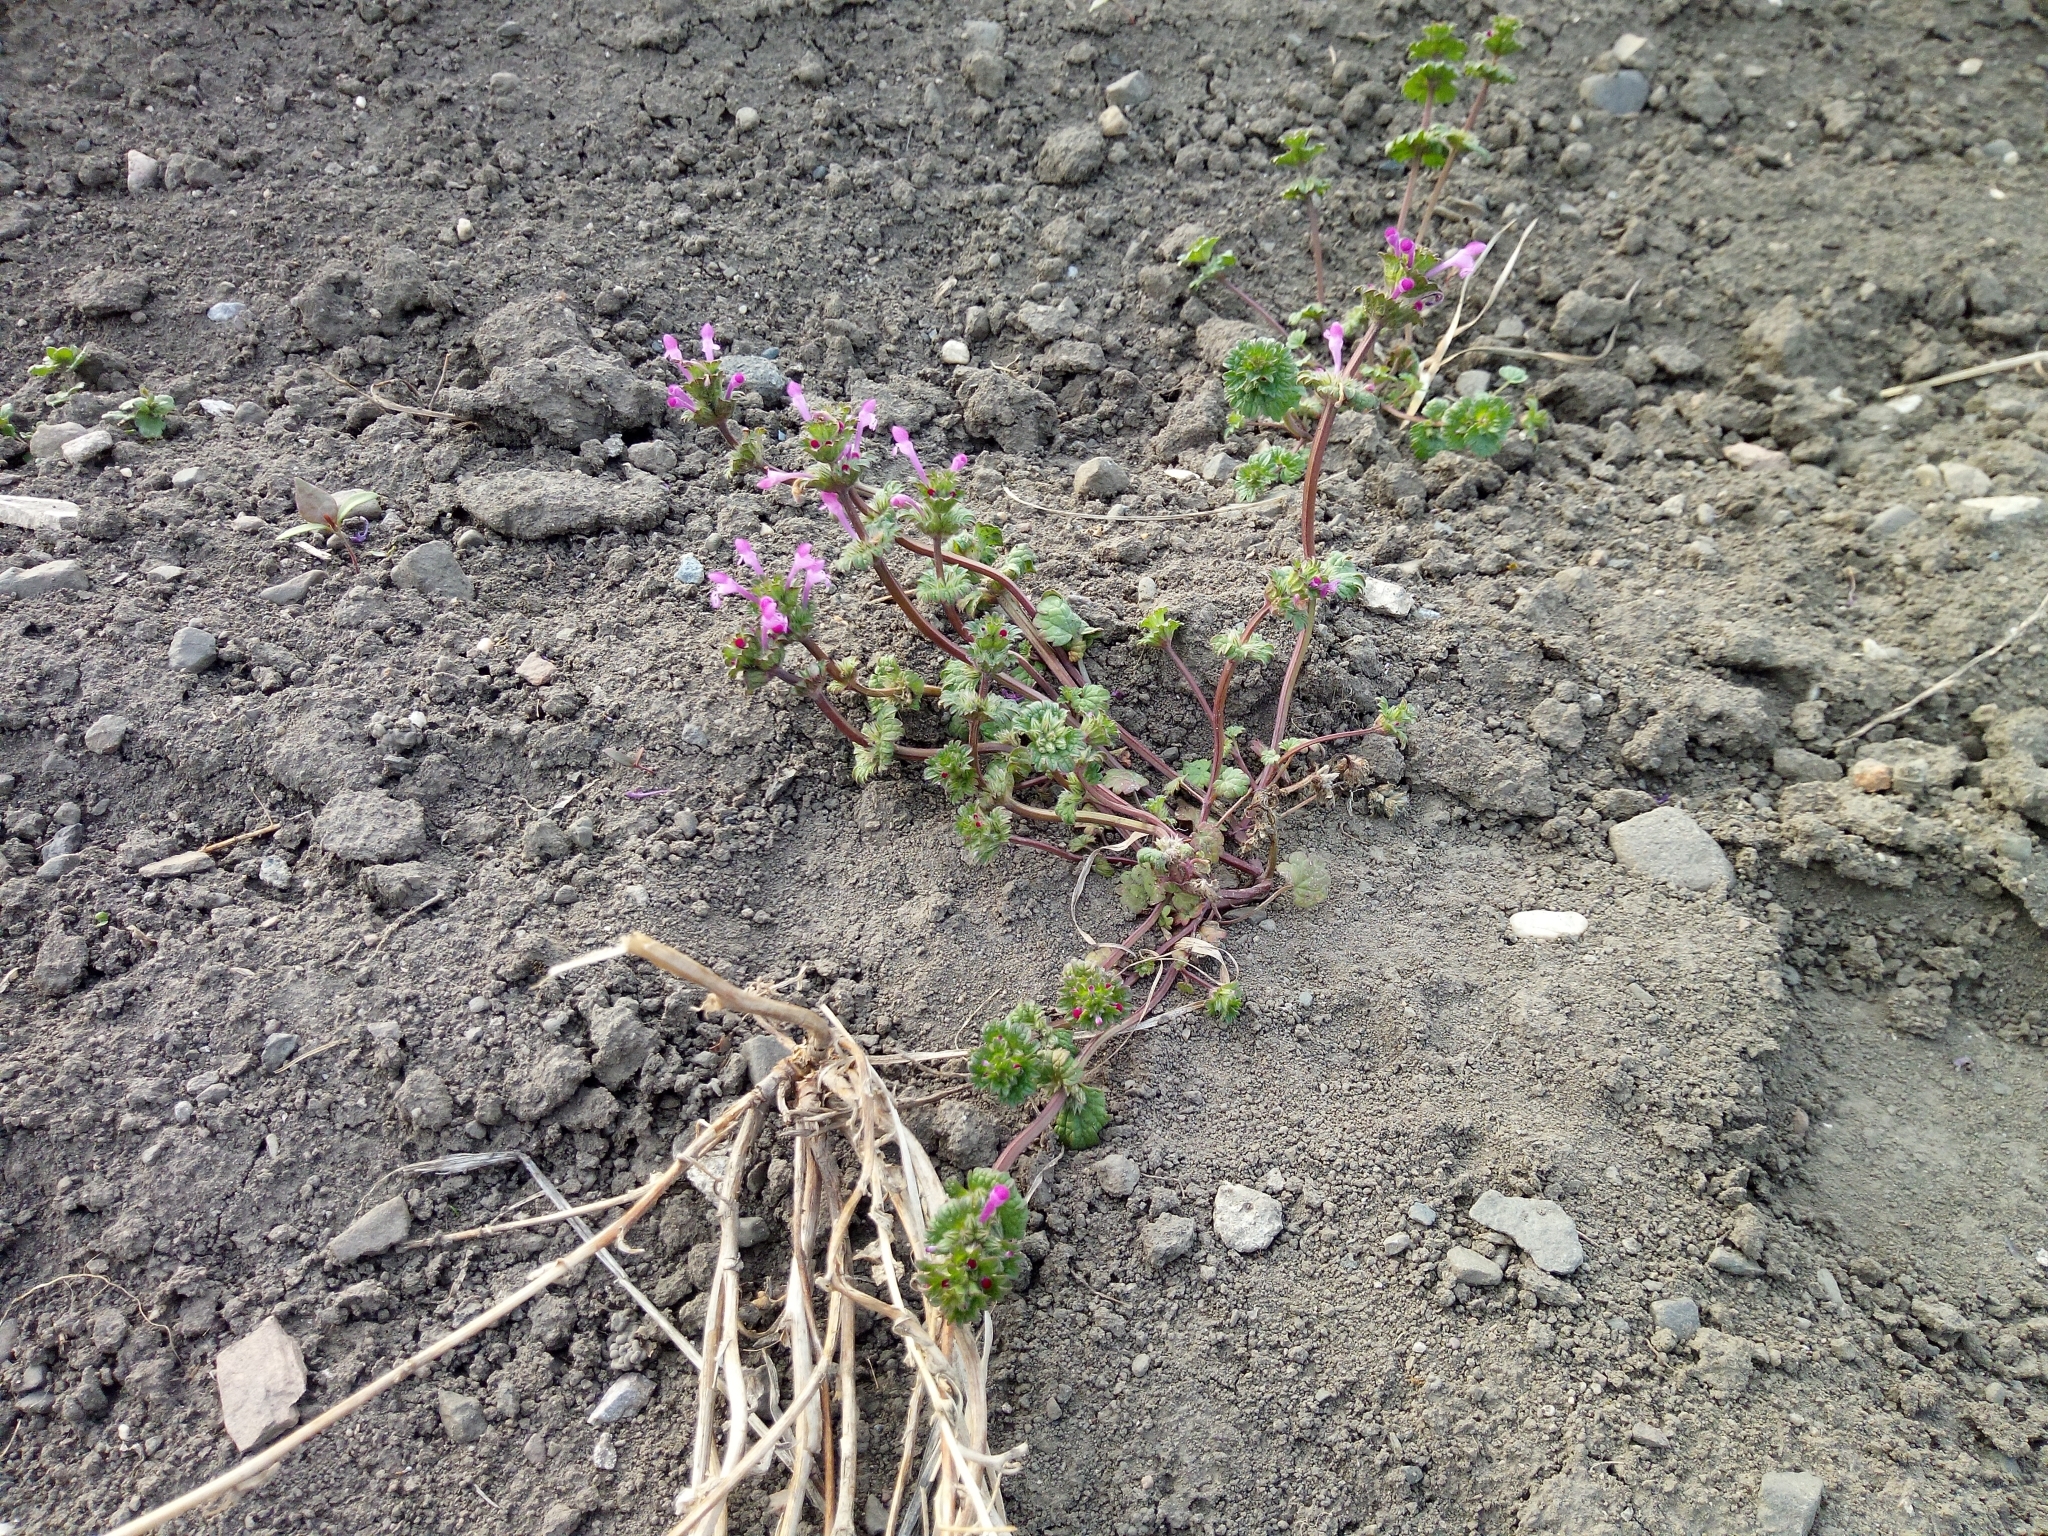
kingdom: Plantae
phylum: Tracheophyta
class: Magnoliopsida
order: Lamiales
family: Lamiaceae
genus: Lamium
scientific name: Lamium amplexicaule
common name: Henbit dead-nettle
